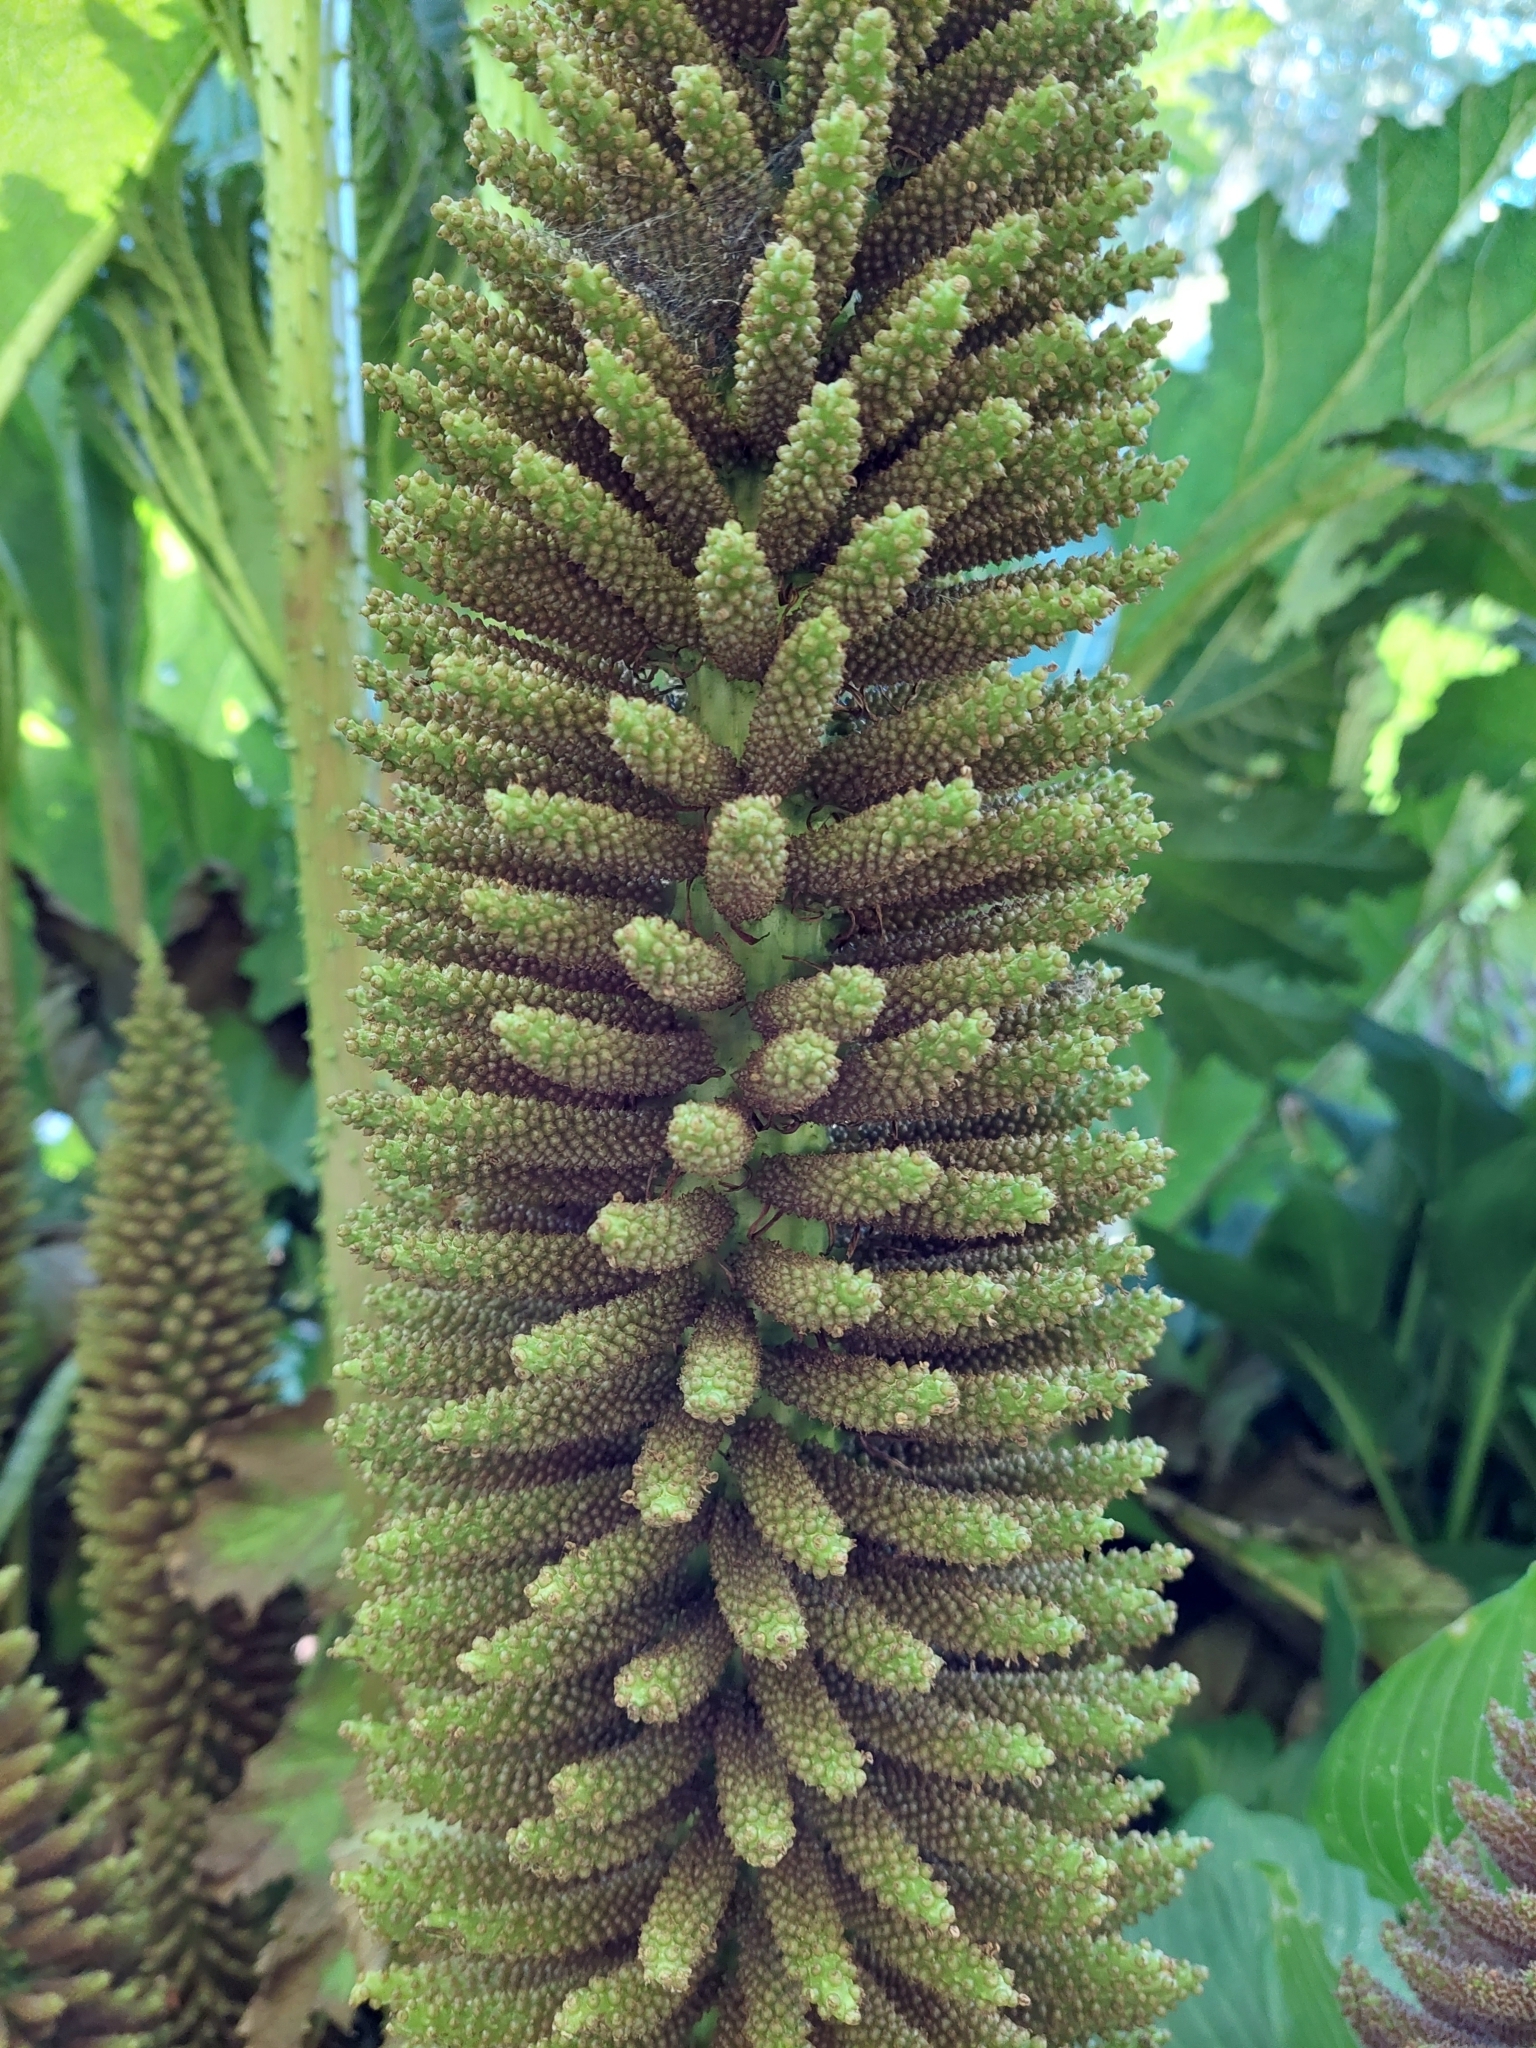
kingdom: Plantae
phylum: Tracheophyta
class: Magnoliopsida
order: Gunnerales
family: Gunneraceae
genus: Gunnera
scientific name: Gunnera tinctoria
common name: Giant-rhubarb
